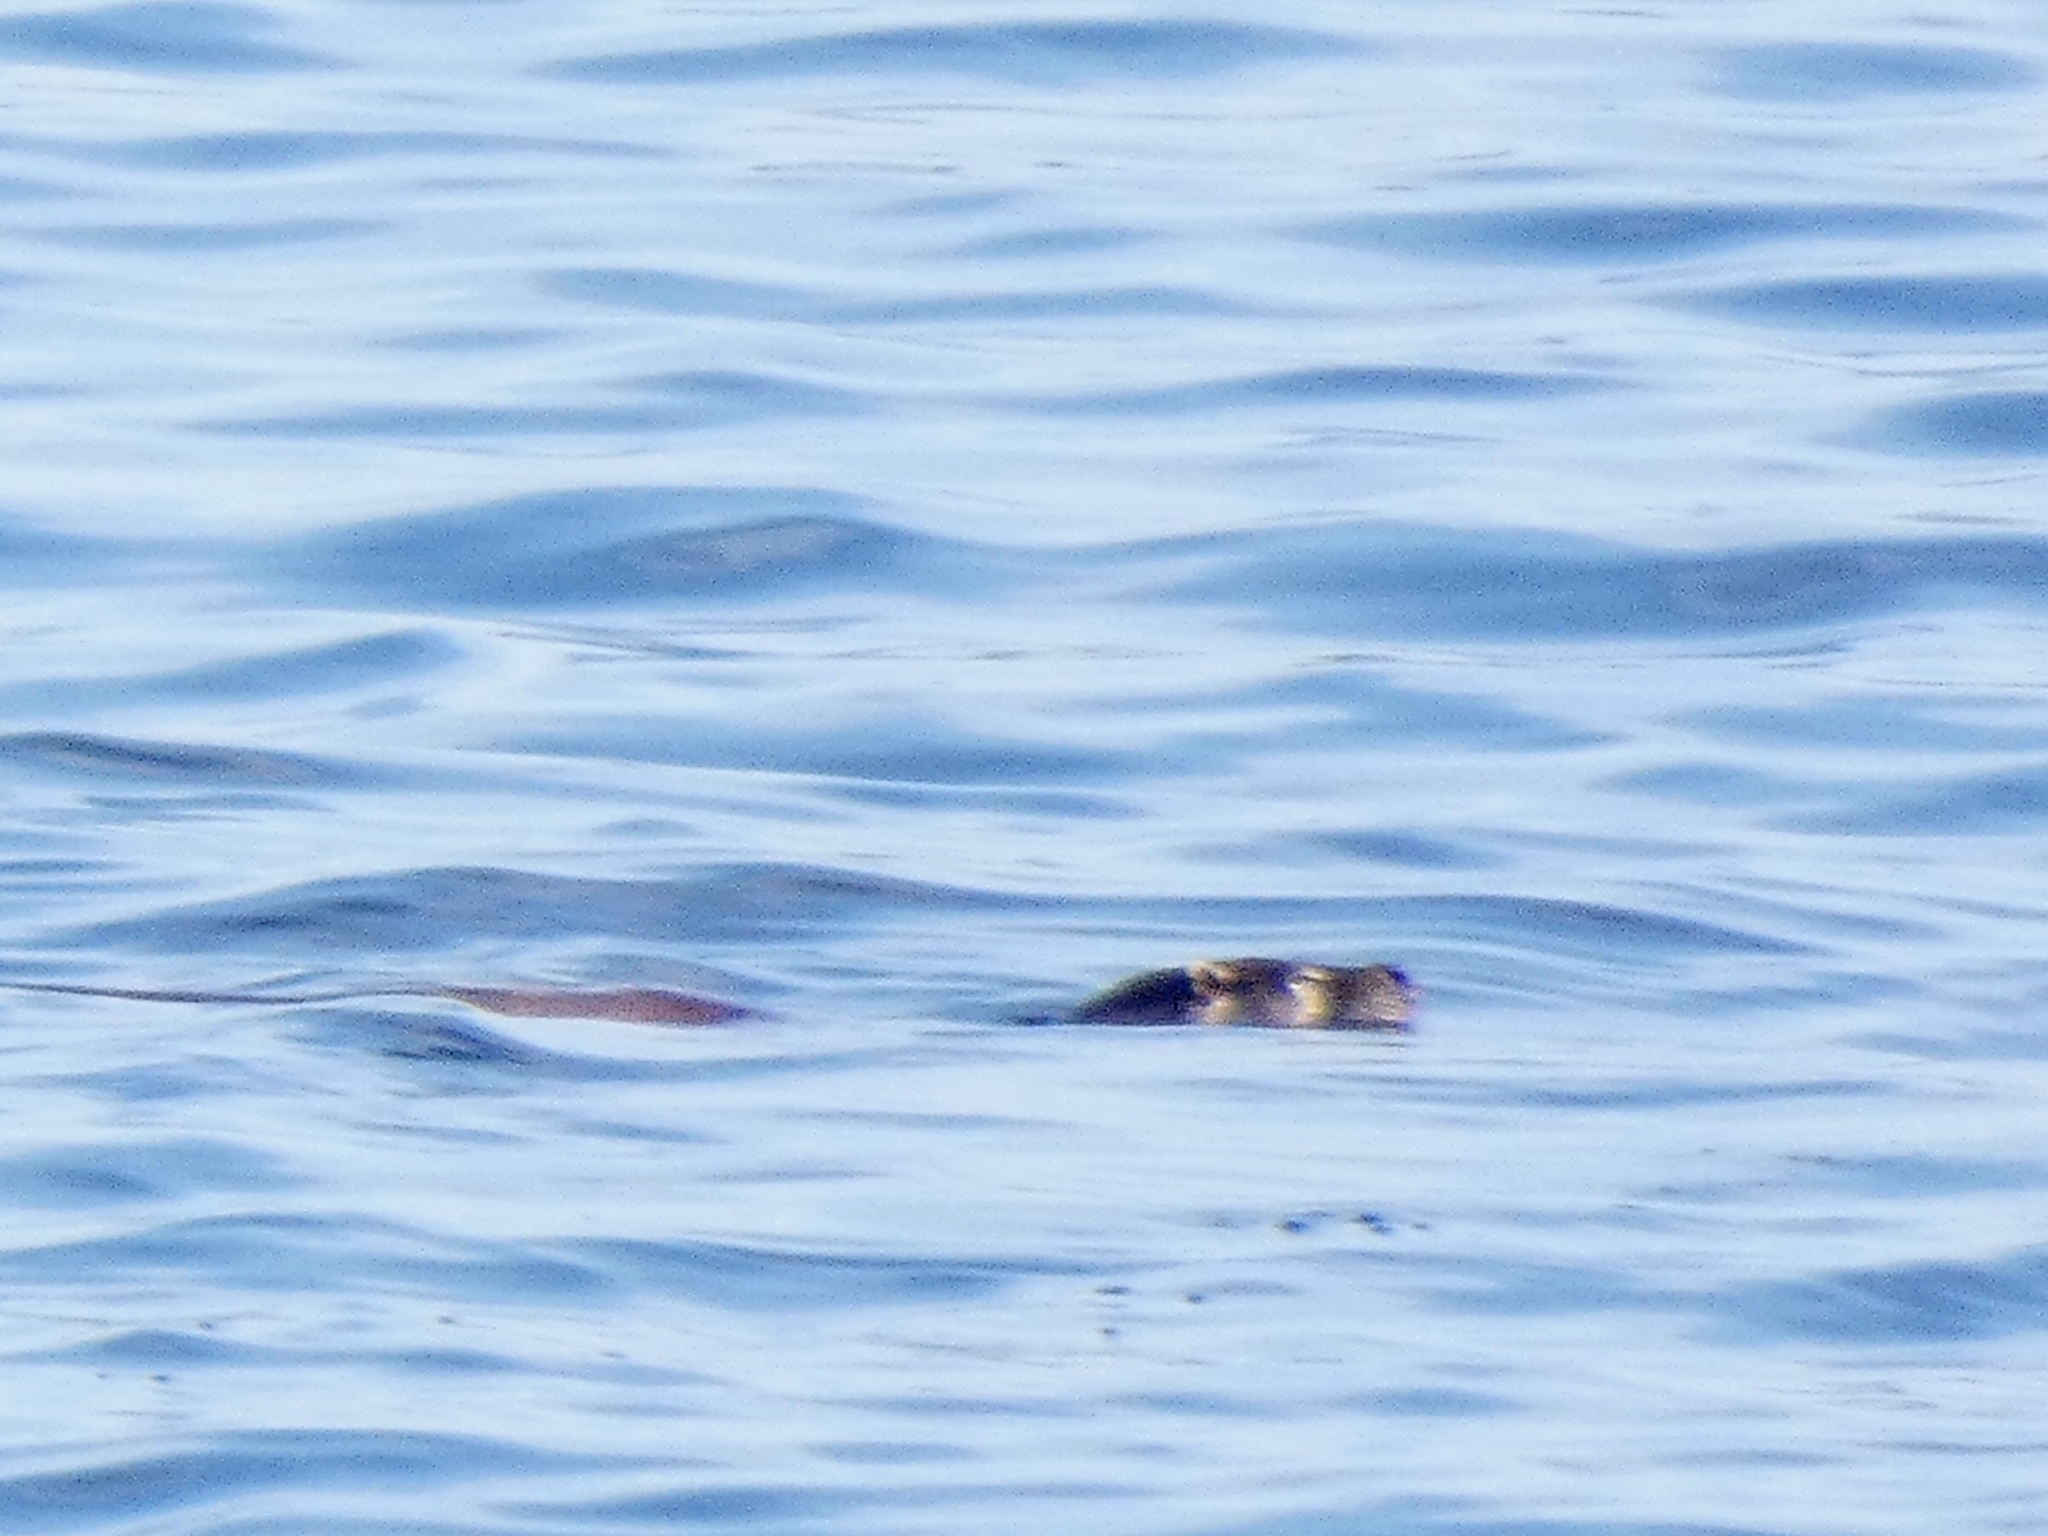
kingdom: Animalia
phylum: Chordata
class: Mammalia
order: Carnivora
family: Mustelidae
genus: Lutra
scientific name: Lutra lutra
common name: European otter
